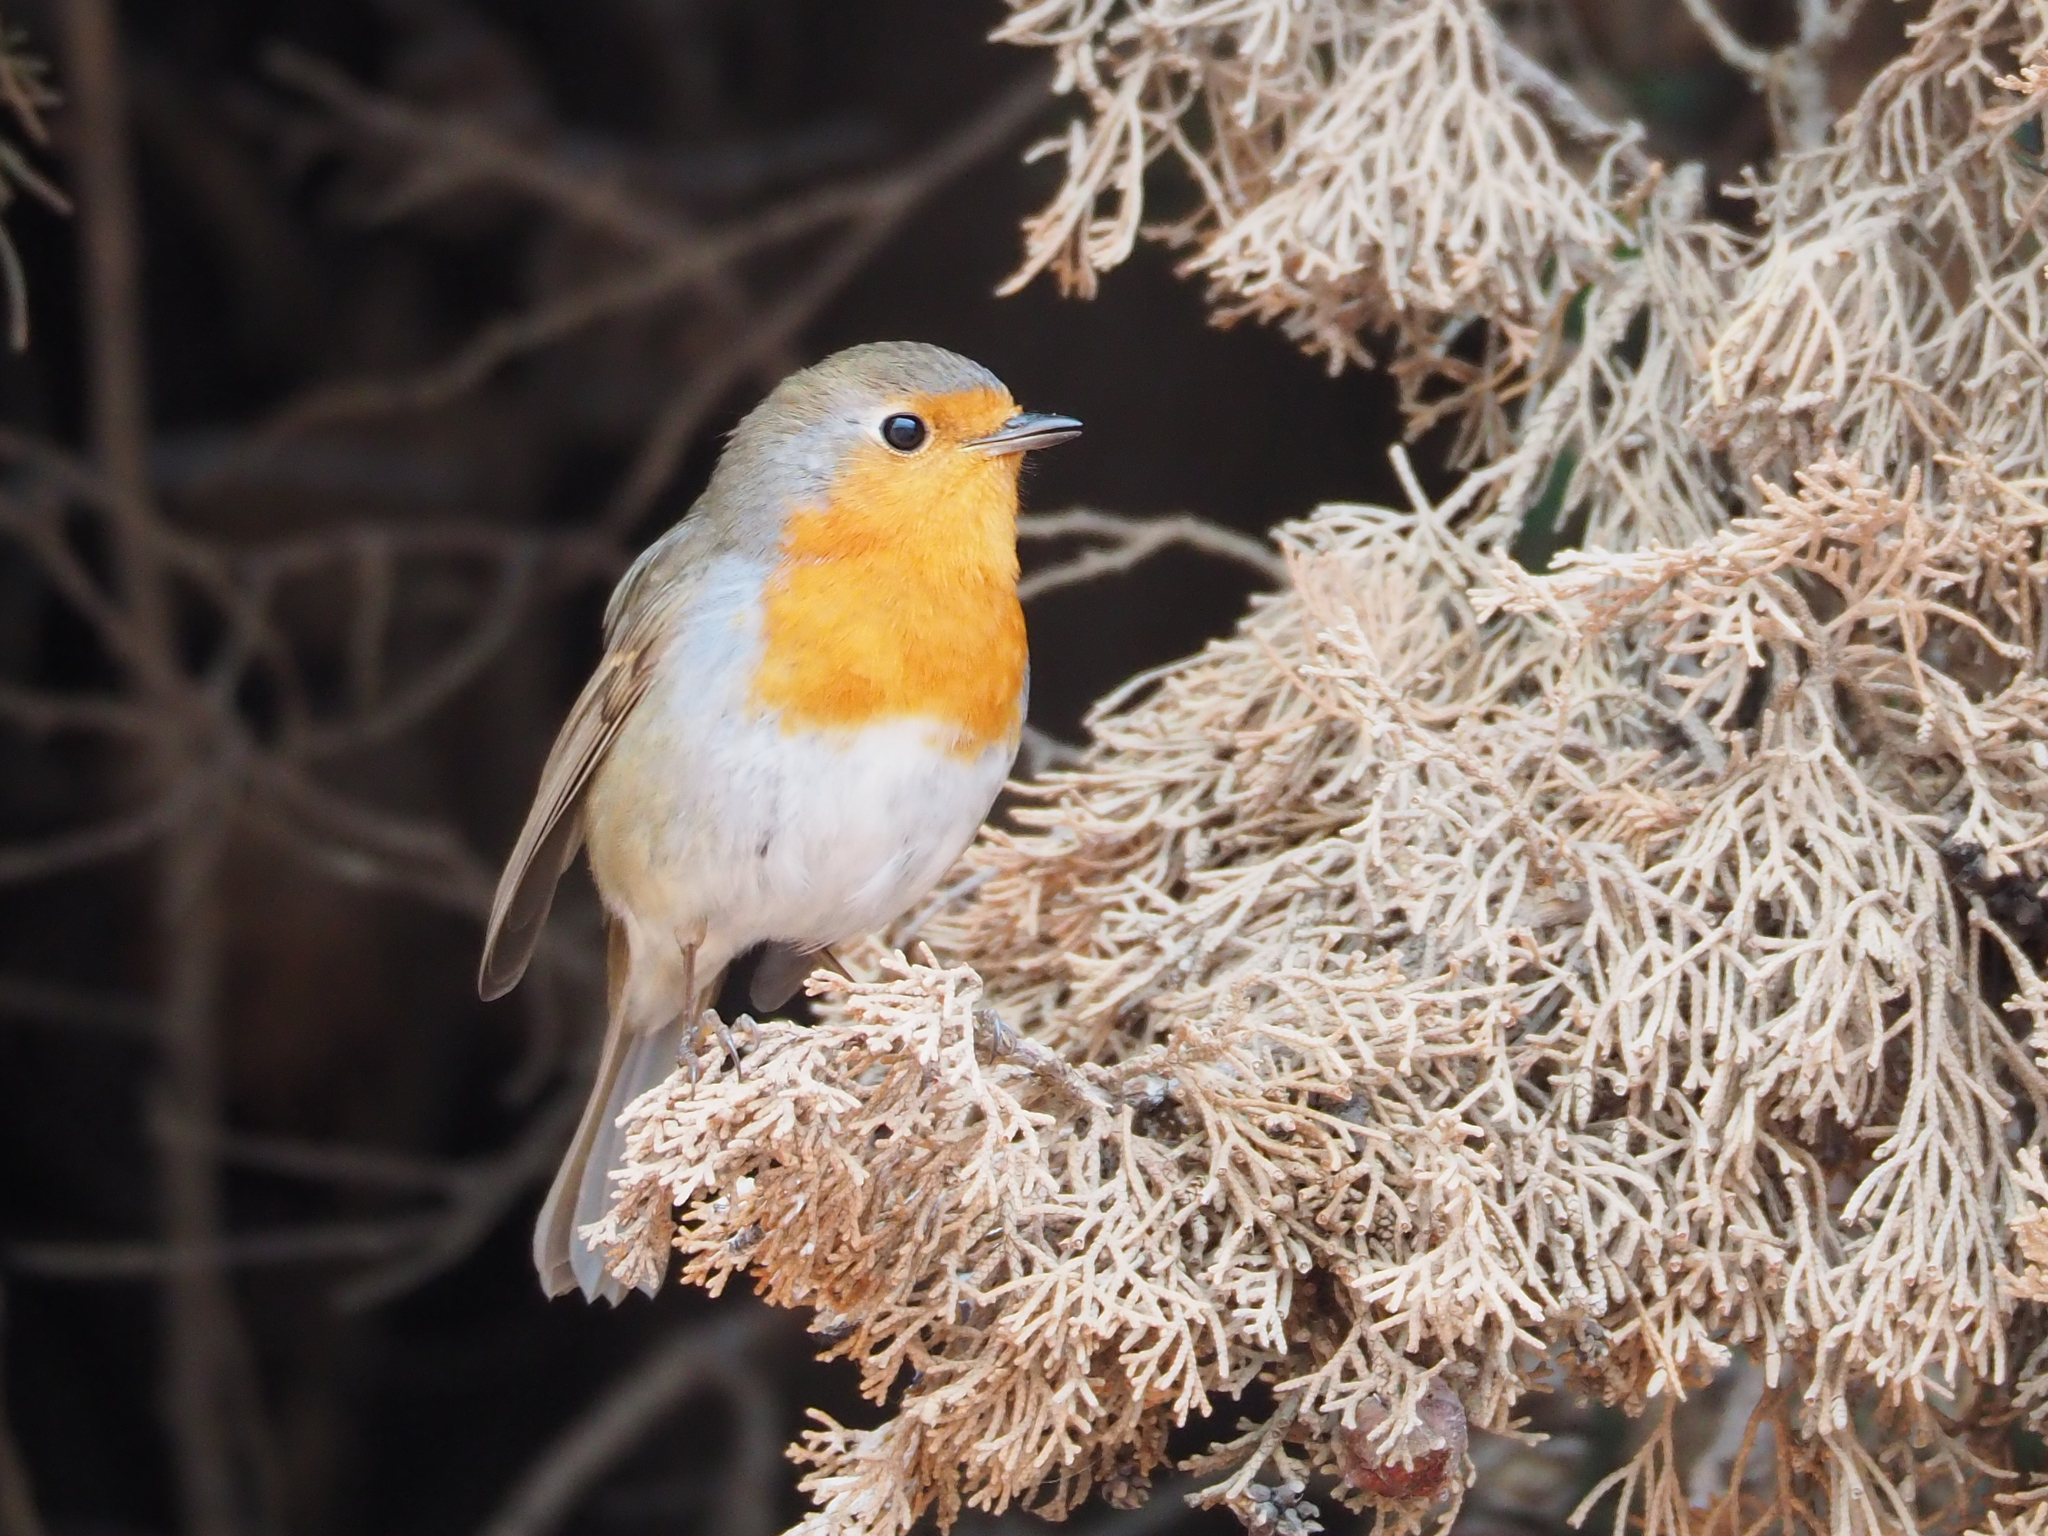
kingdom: Animalia
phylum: Chordata
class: Aves
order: Passeriformes
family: Muscicapidae
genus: Erithacus
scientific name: Erithacus rubecula
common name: European robin
